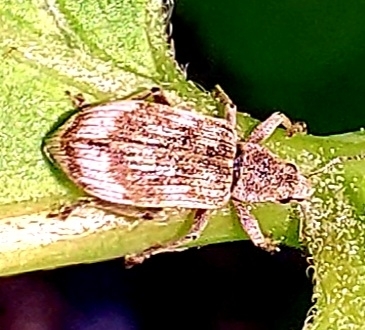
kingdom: Animalia
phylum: Arthropoda
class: Insecta
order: Coleoptera
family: Curculionidae
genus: Polydrusus
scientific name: Polydrusus tereticollis
